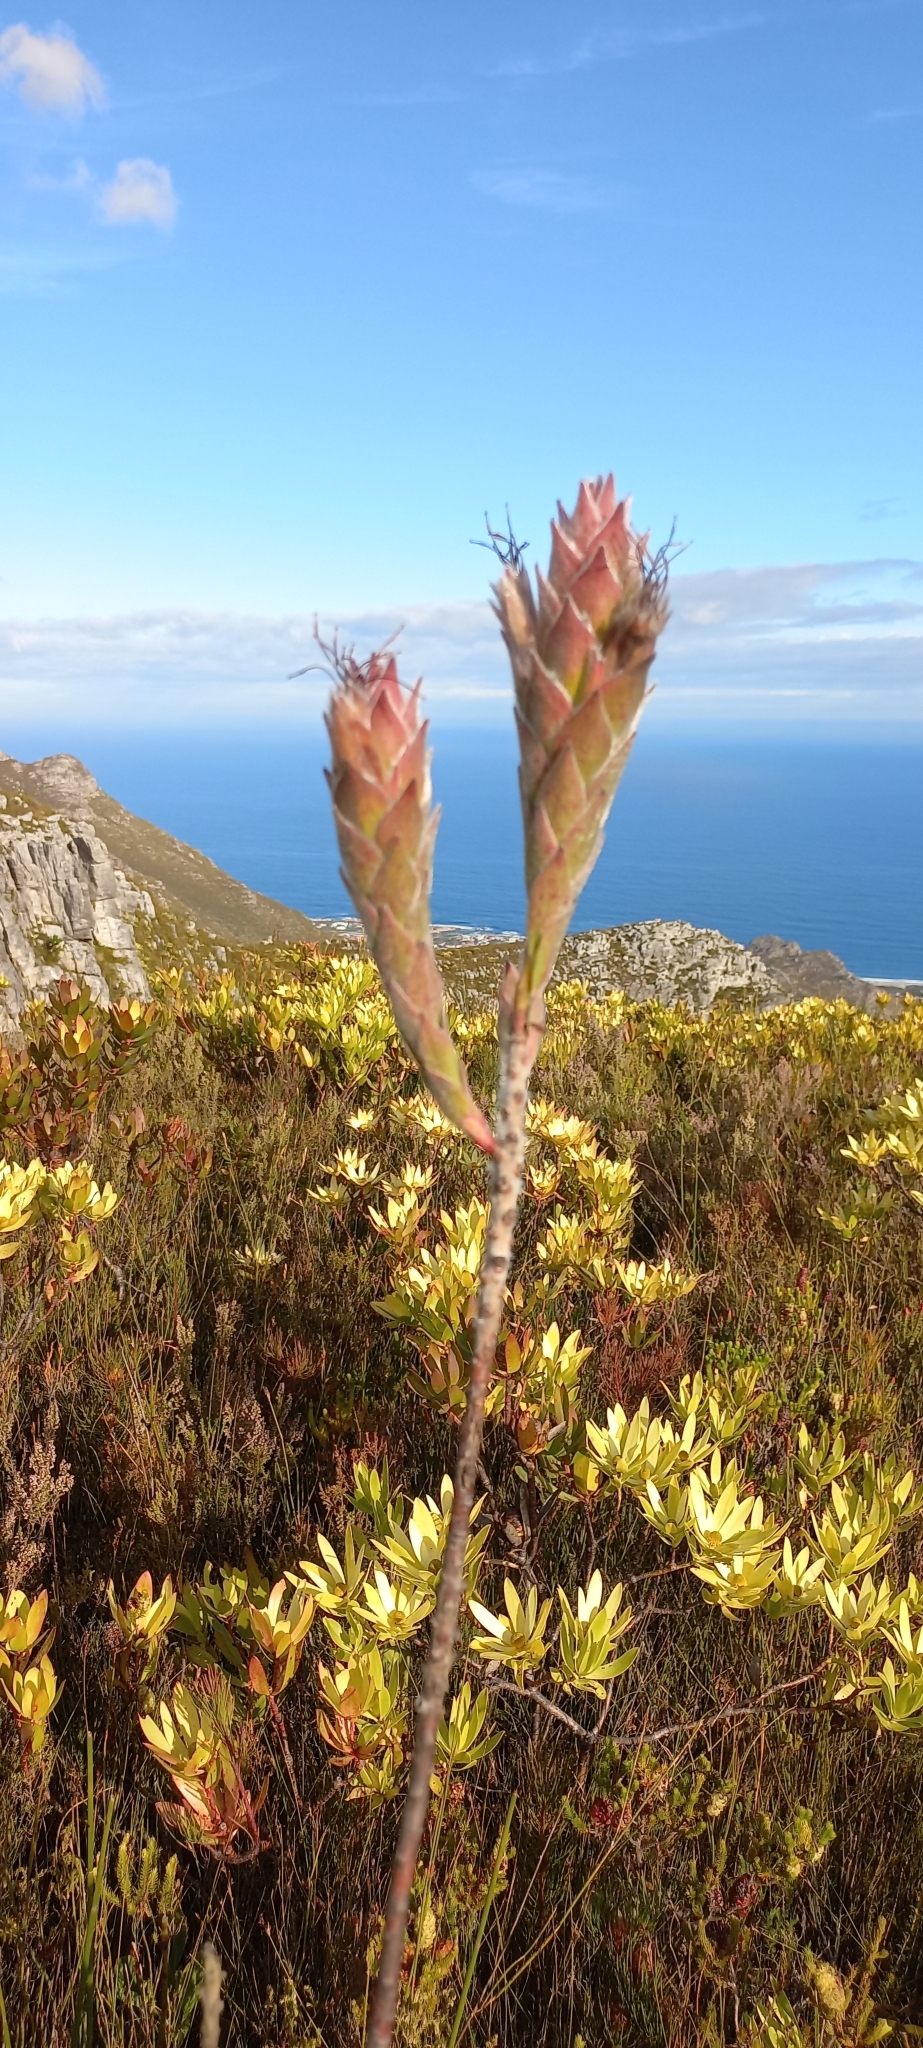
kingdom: Plantae
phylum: Tracheophyta
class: Magnoliopsida
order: Proteales
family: Proteaceae
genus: Mimetes
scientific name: Mimetes capitulatus
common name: Conical pagoda
